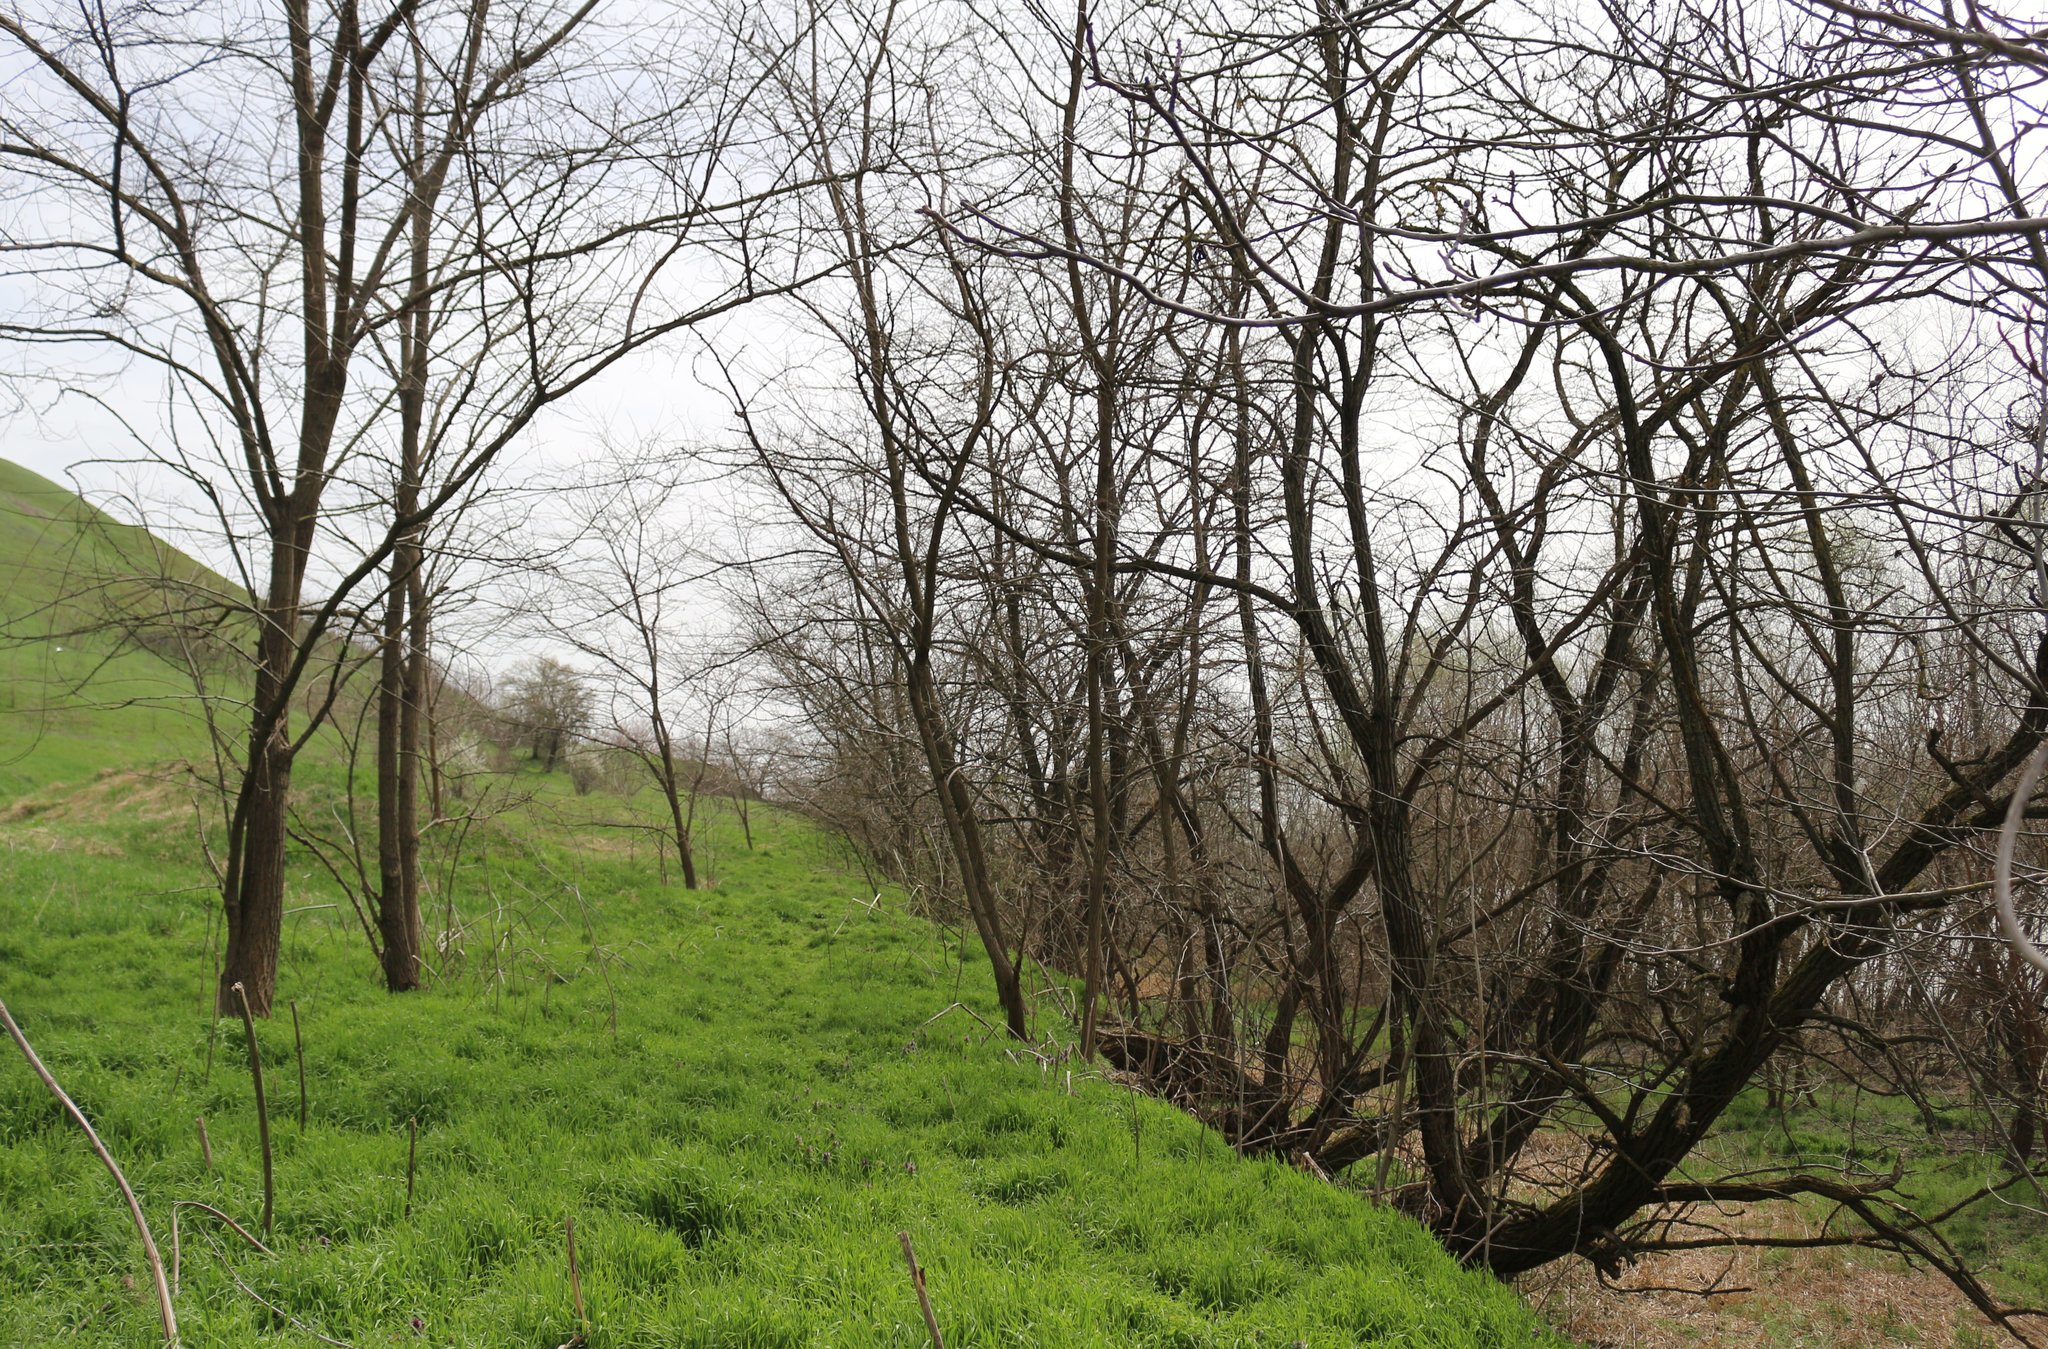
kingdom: Plantae
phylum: Tracheophyta
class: Magnoliopsida
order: Fabales
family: Fabaceae
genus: Robinia
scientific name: Robinia pseudoacacia
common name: Black locust
